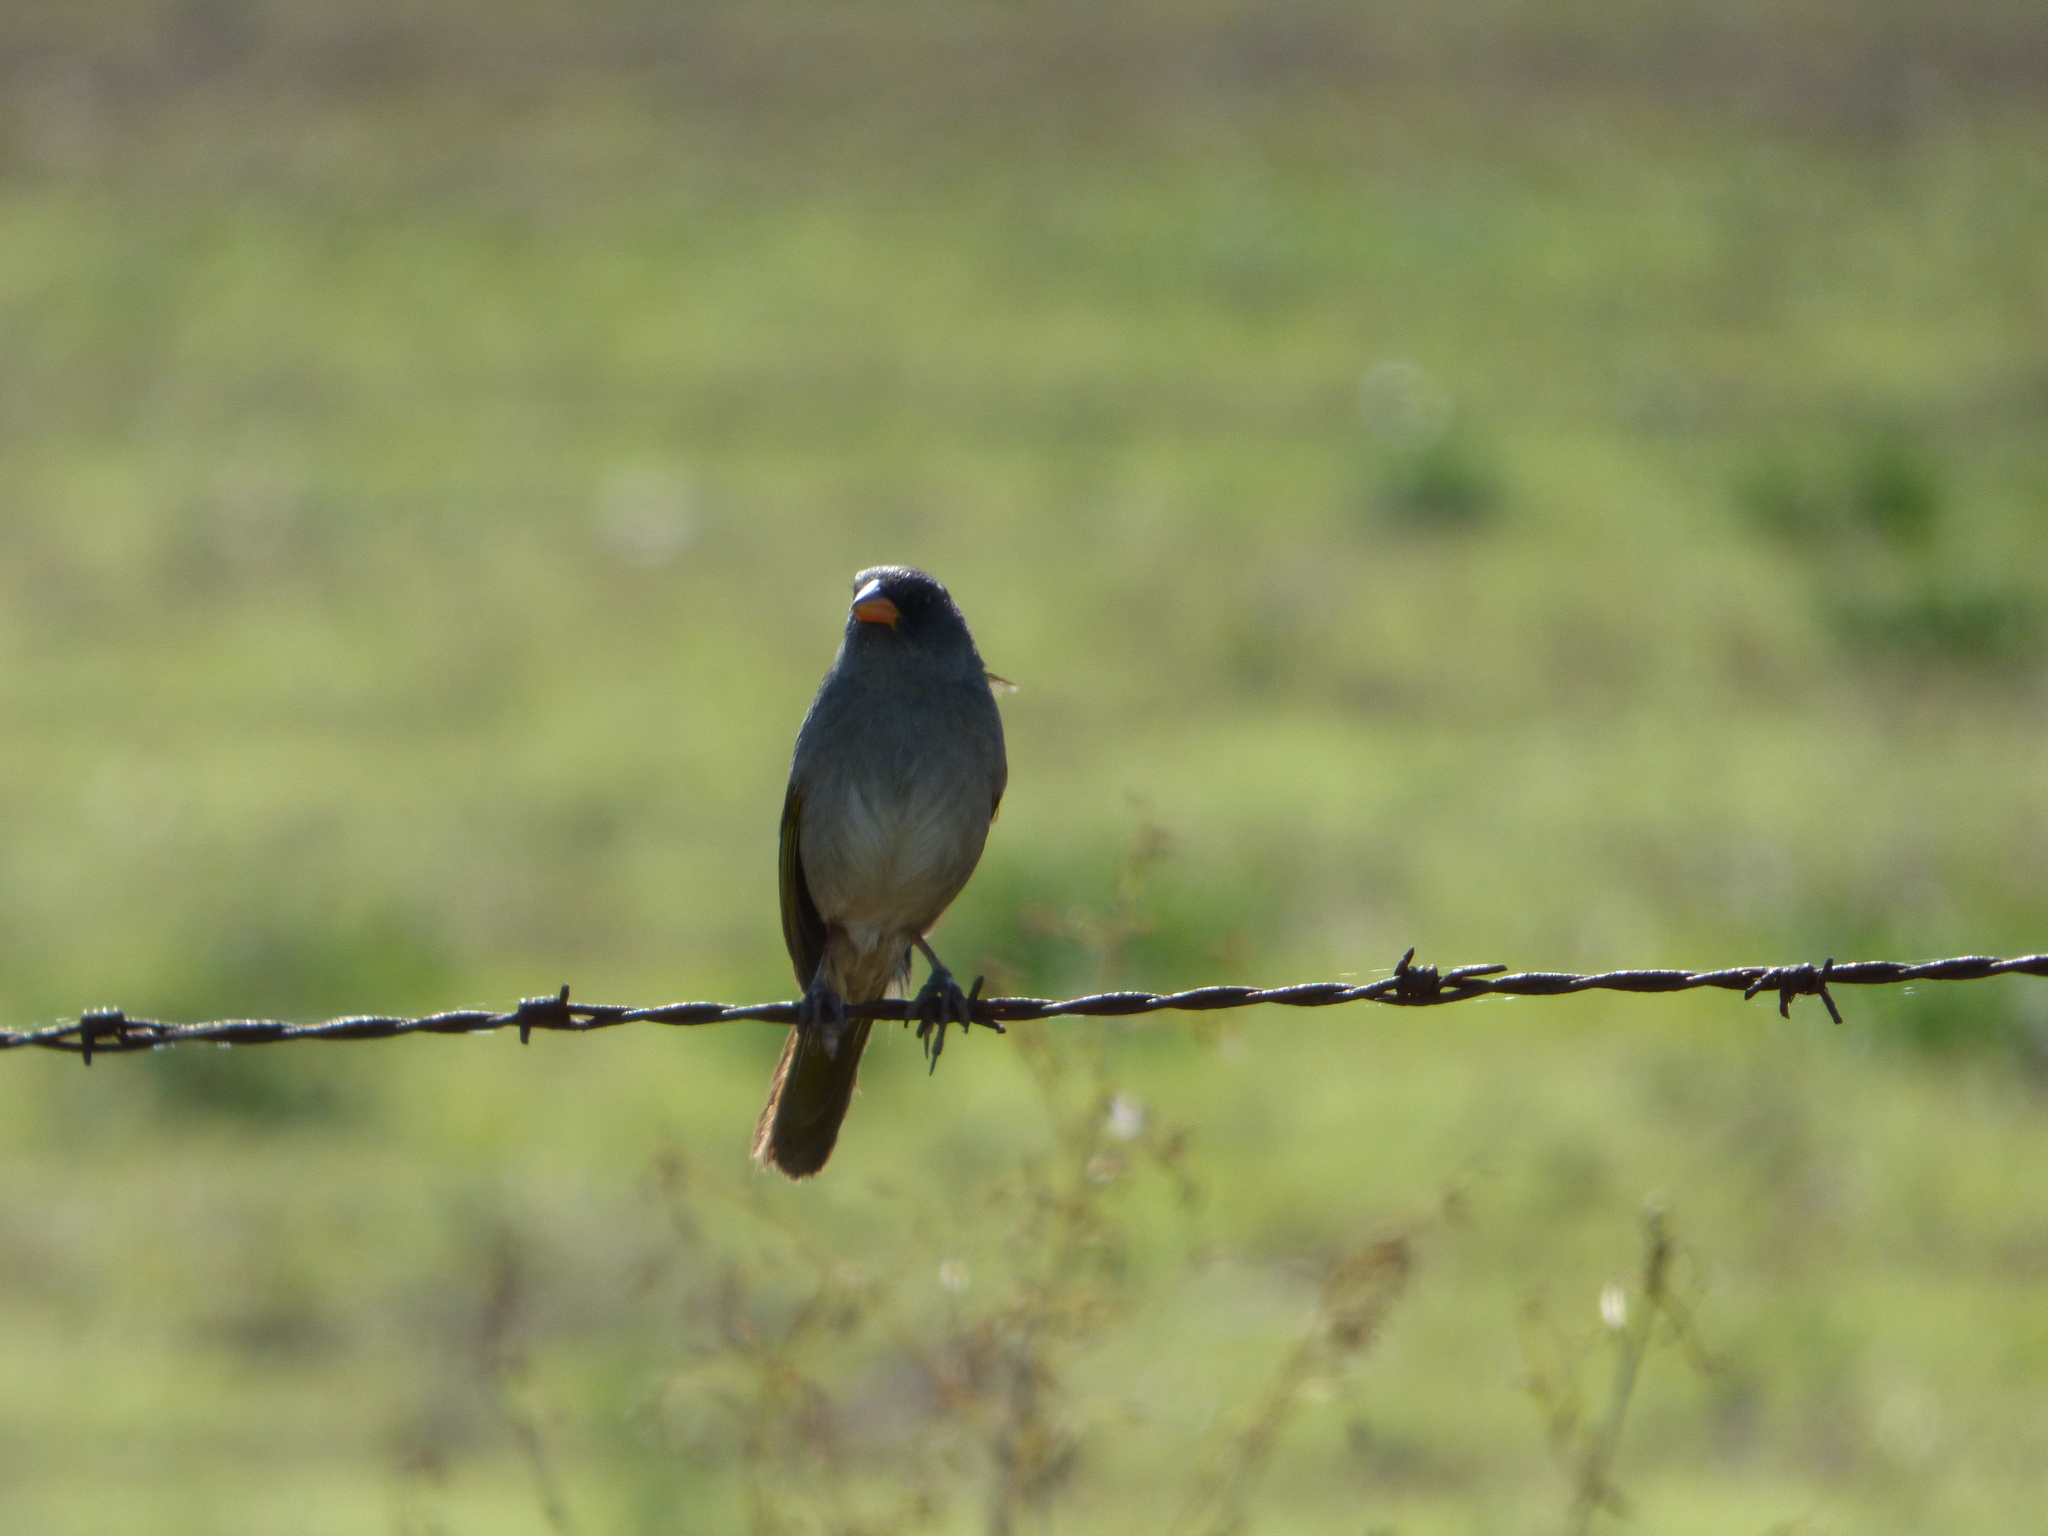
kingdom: Animalia
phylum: Chordata
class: Aves
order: Passeriformes
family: Thraupidae
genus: Embernagra
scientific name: Embernagra platensis
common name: Pampa finch
